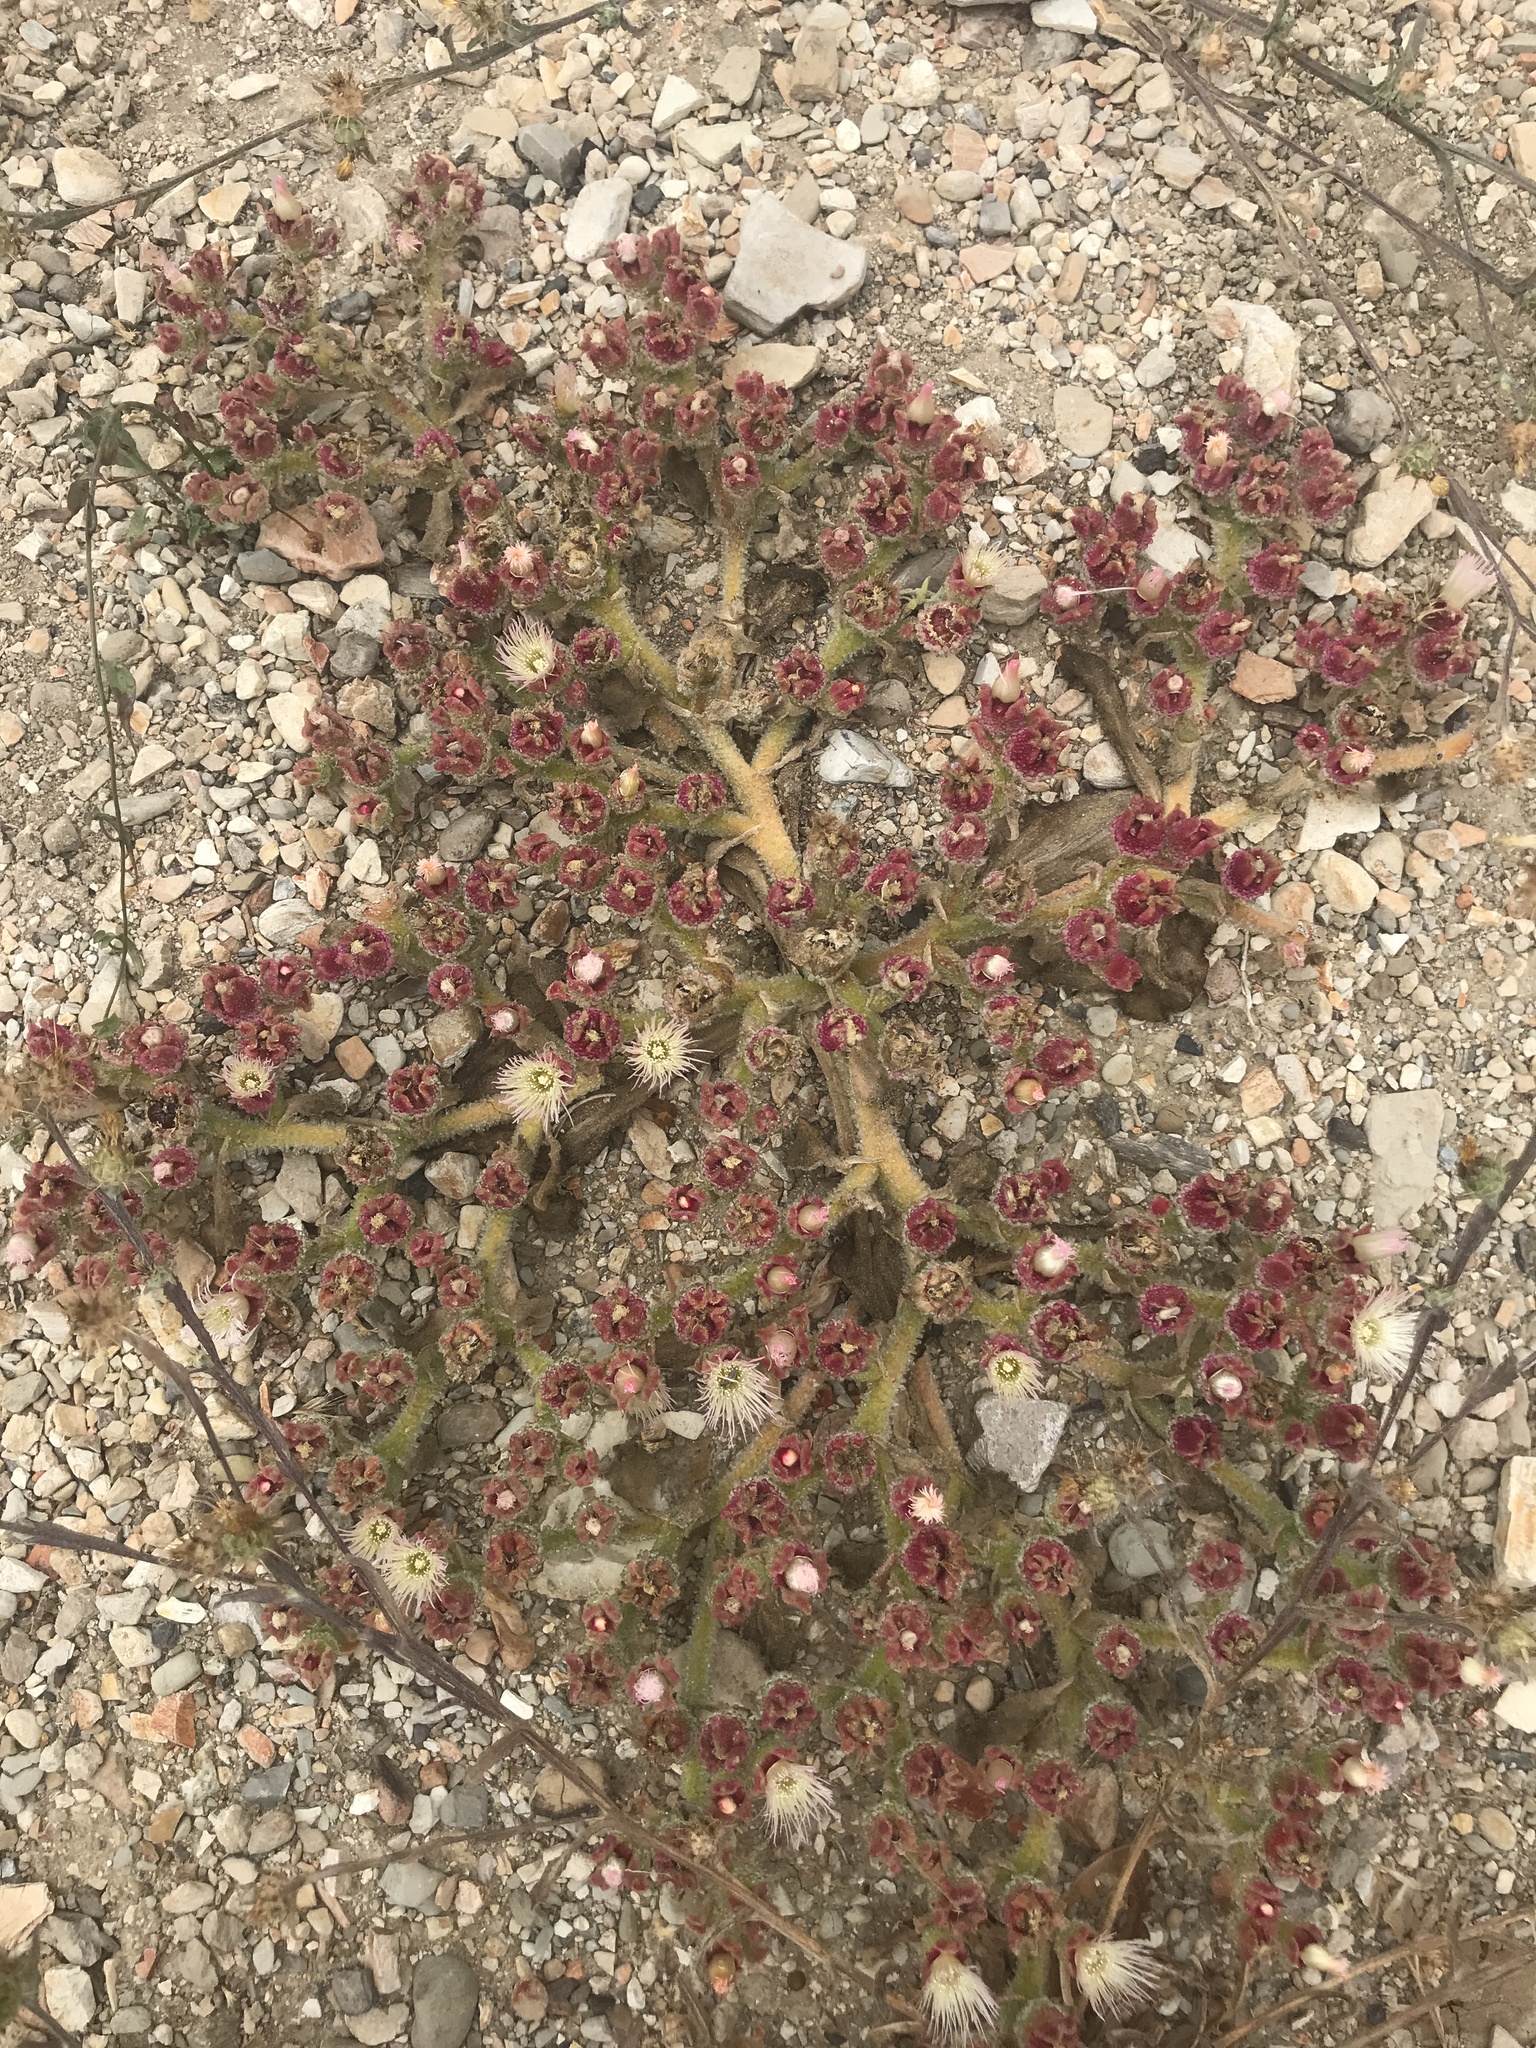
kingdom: Plantae
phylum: Tracheophyta
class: Magnoliopsida
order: Caryophyllales
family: Aizoaceae
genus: Mesembryanthemum
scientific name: Mesembryanthemum crystallinum
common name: Common iceplant
